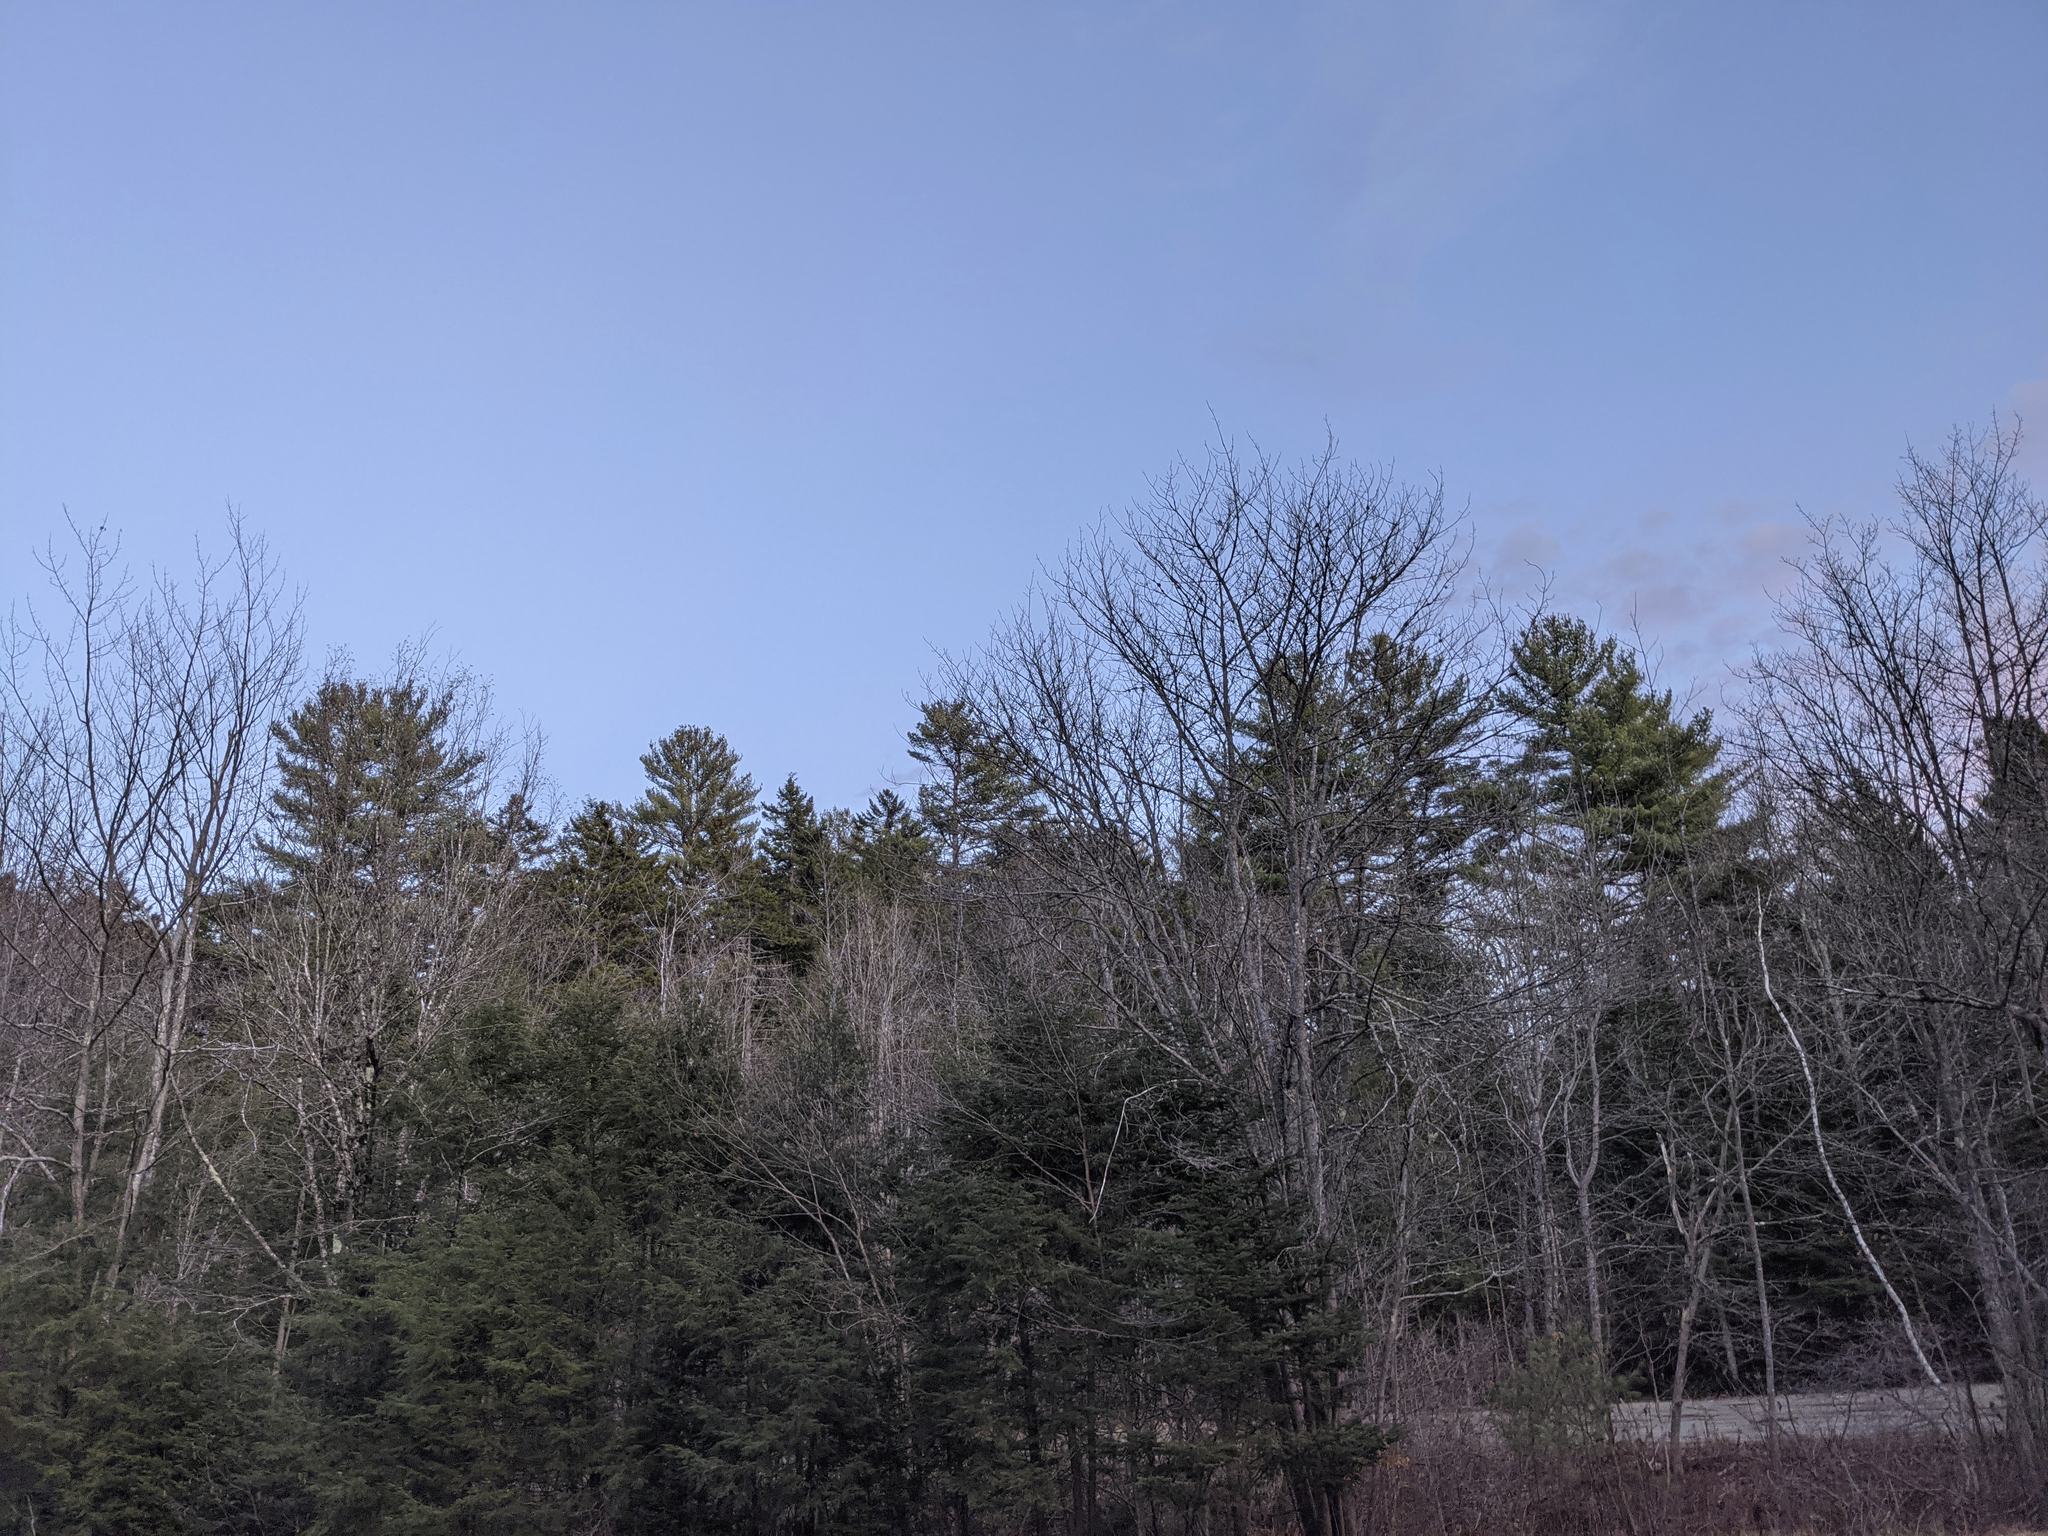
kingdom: Plantae
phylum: Tracheophyta
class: Pinopsida
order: Pinales
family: Pinaceae
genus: Pinus
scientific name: Pinus strobus
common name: Weymouth pine
